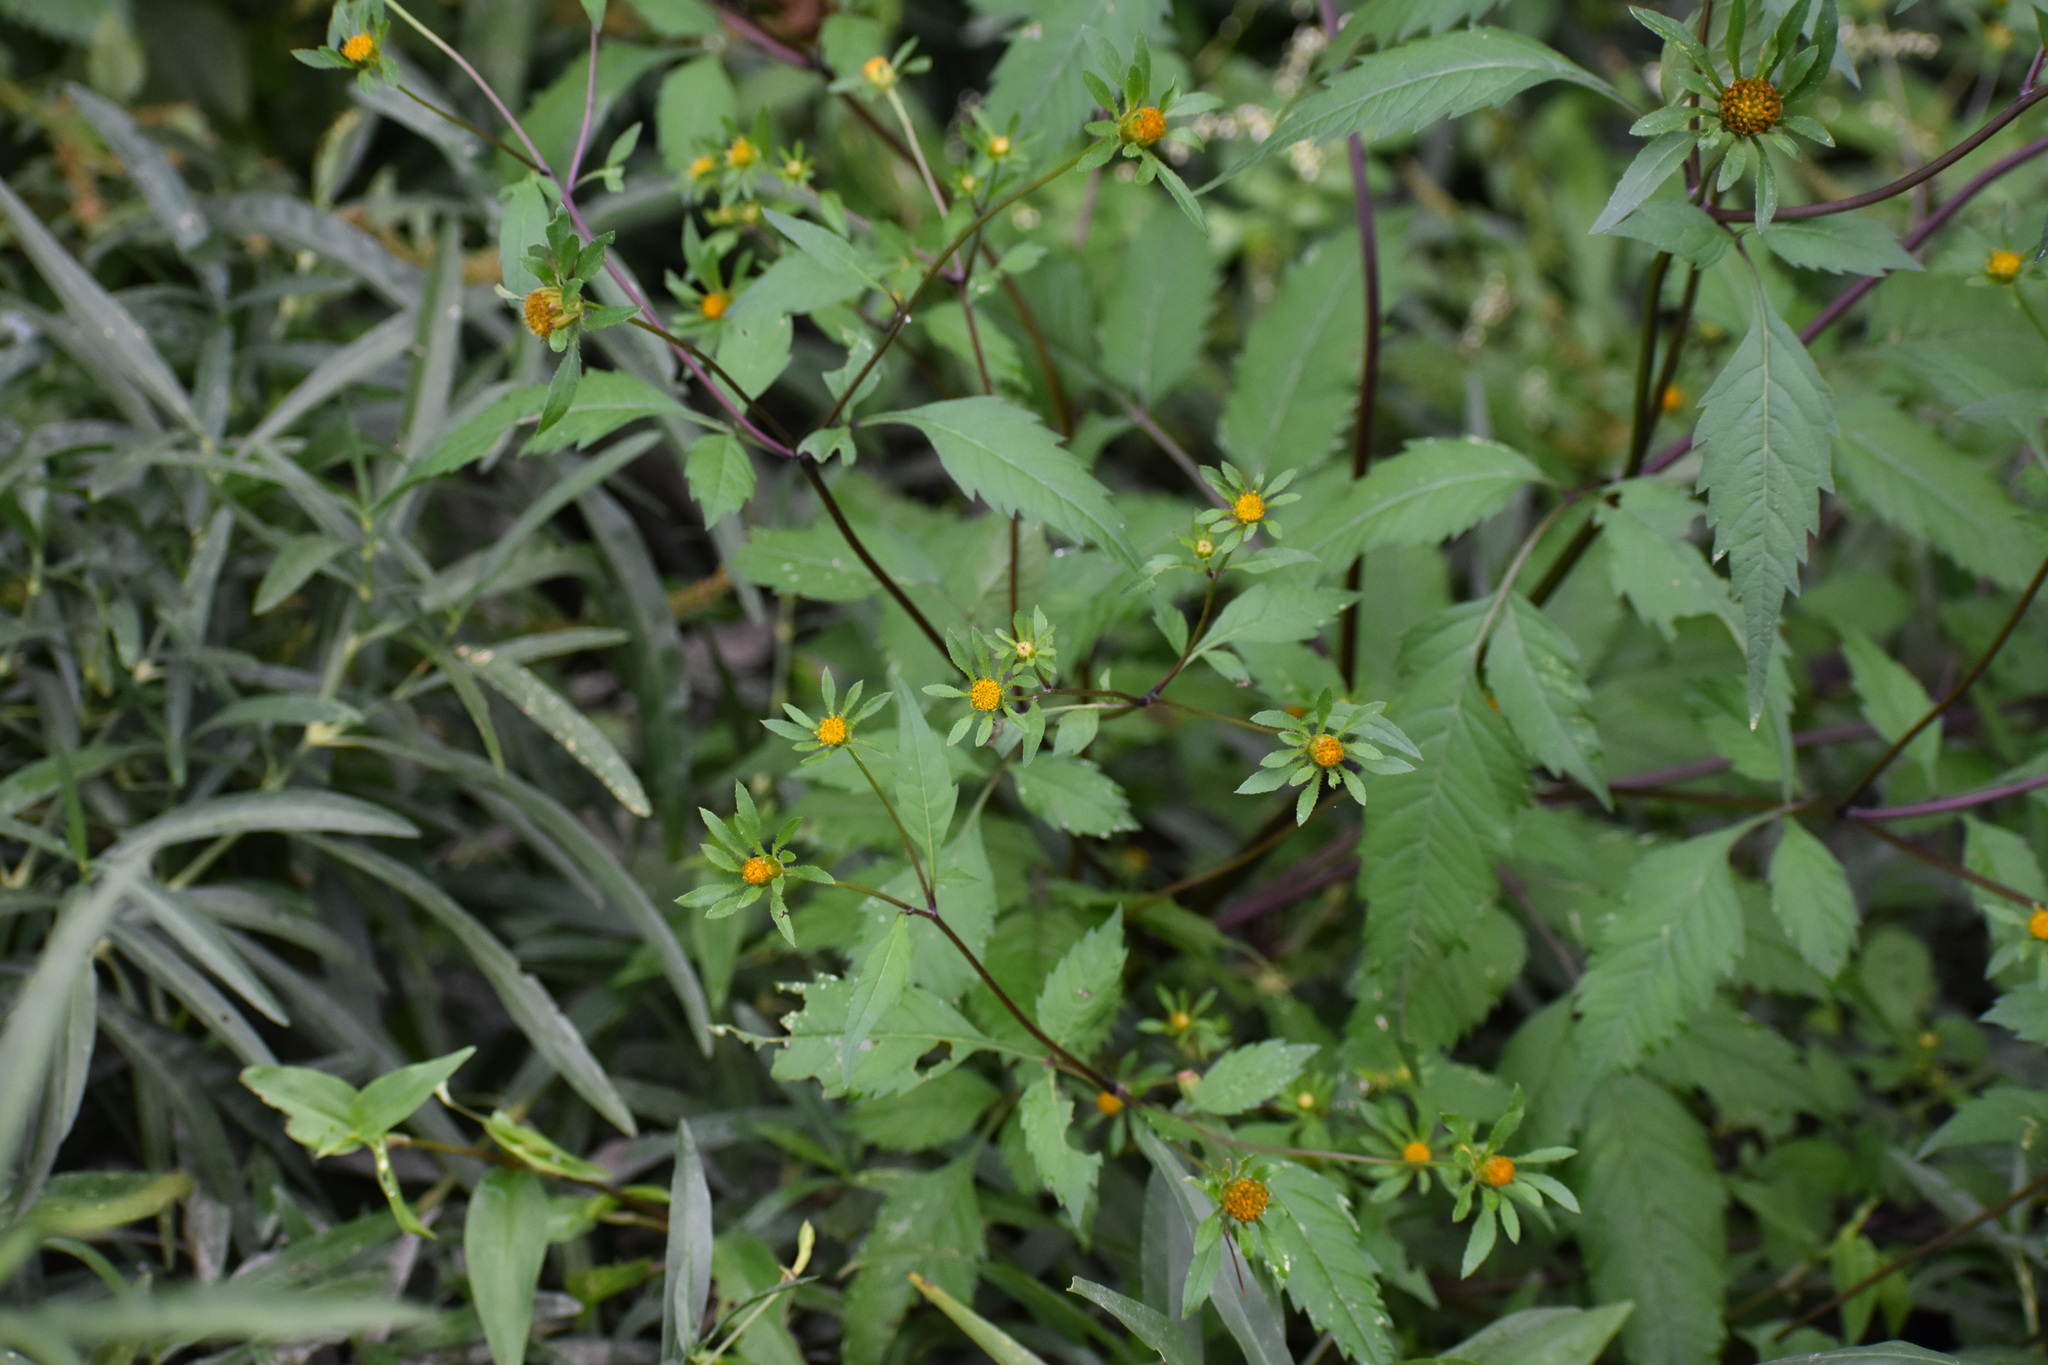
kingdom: Plantae
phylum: Tracheophyta
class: Magnoliopsida
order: Asterales
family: Asteraceae
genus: Bidens
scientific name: Bidens frondosa
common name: Beggarticks
